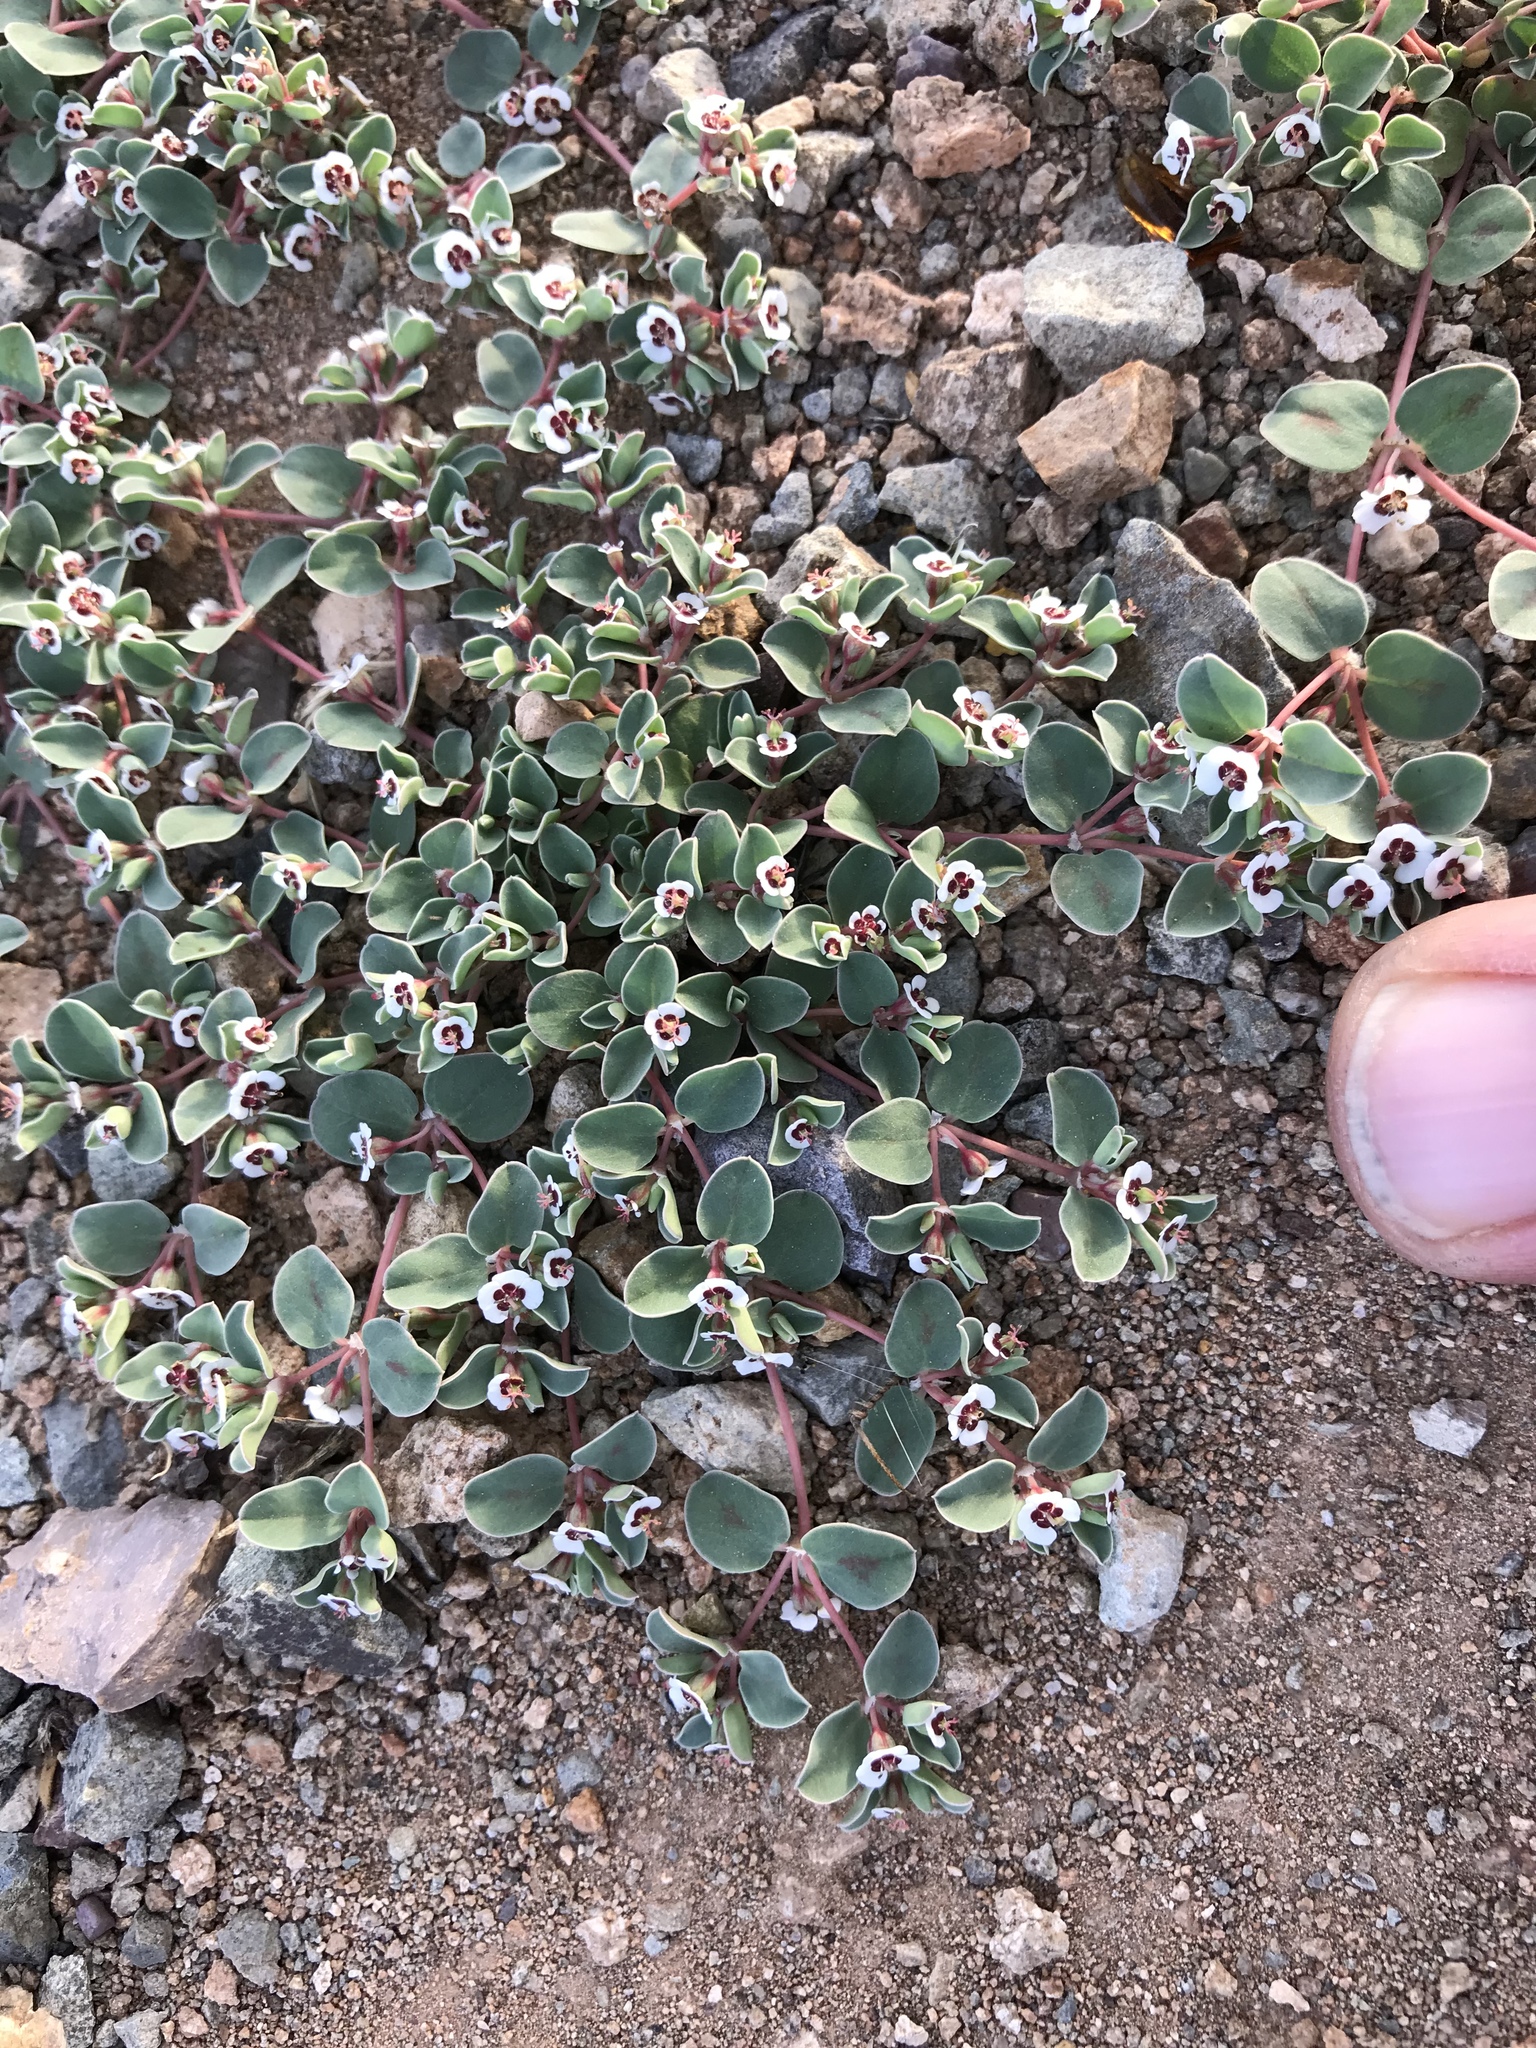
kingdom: Plantae
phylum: Tracheophyta
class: Magnoliopsida
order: Malpighiales
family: Euphorbiaceae
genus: Euphorbia
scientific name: Euphorbia albomarginata
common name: Whitemargin sandmat
